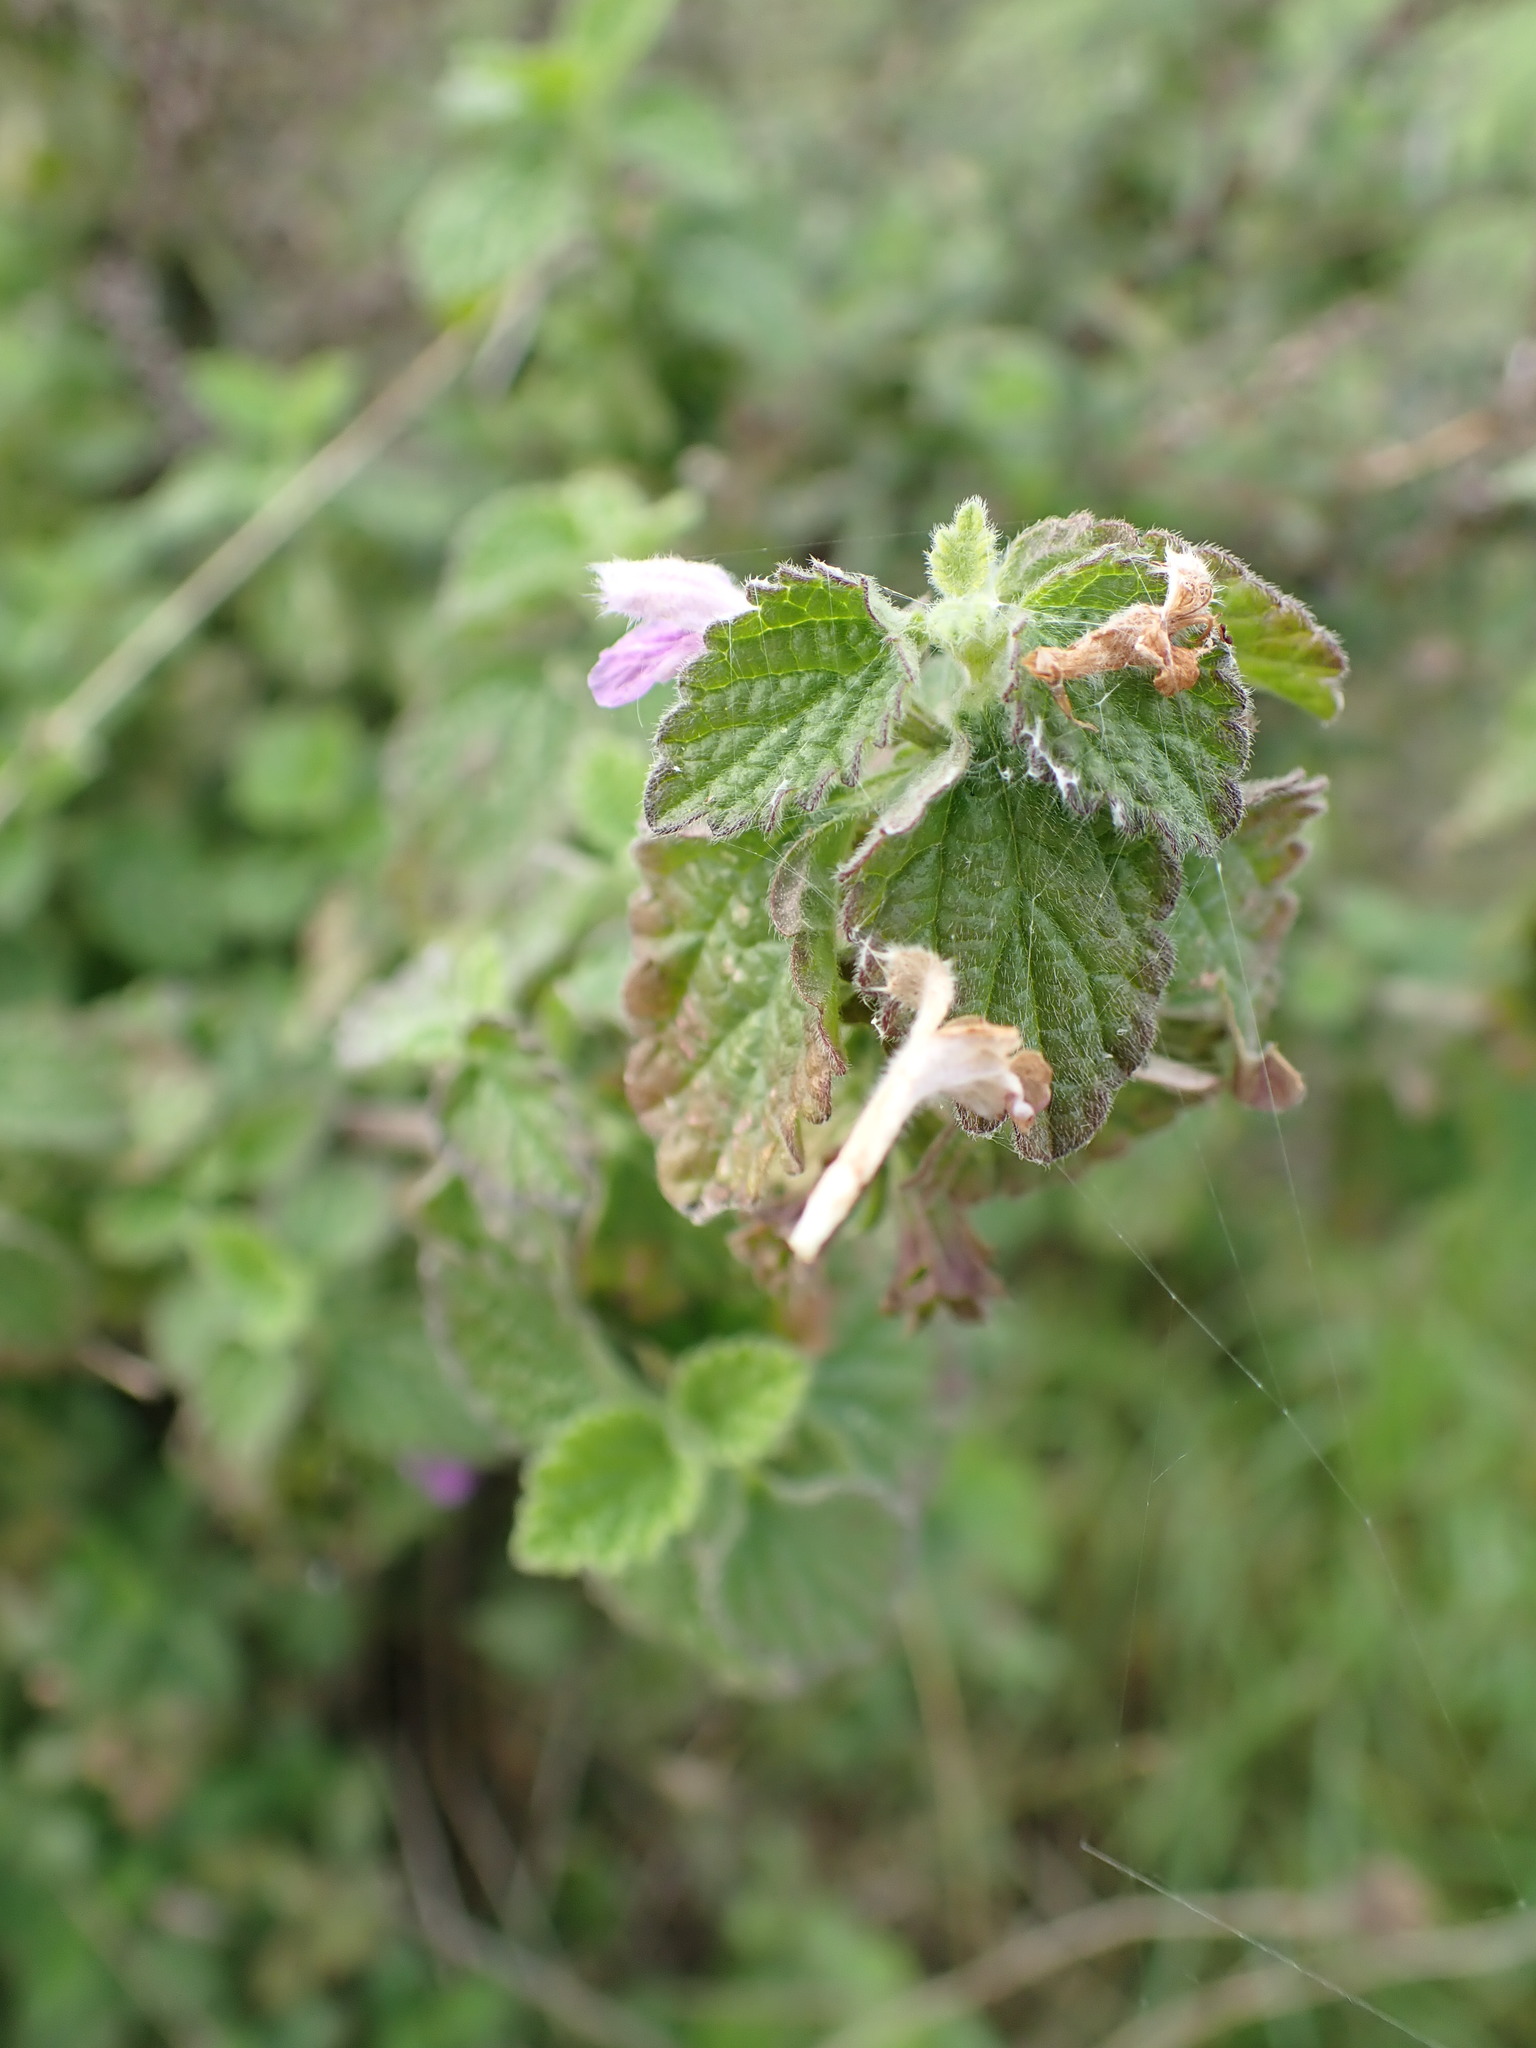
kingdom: Plantae
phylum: Tracheophyta
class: Magnoliopsida
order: Lamiales
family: Lamiaceae
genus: Ballota
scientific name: Ballota nigra
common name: Black horehound
